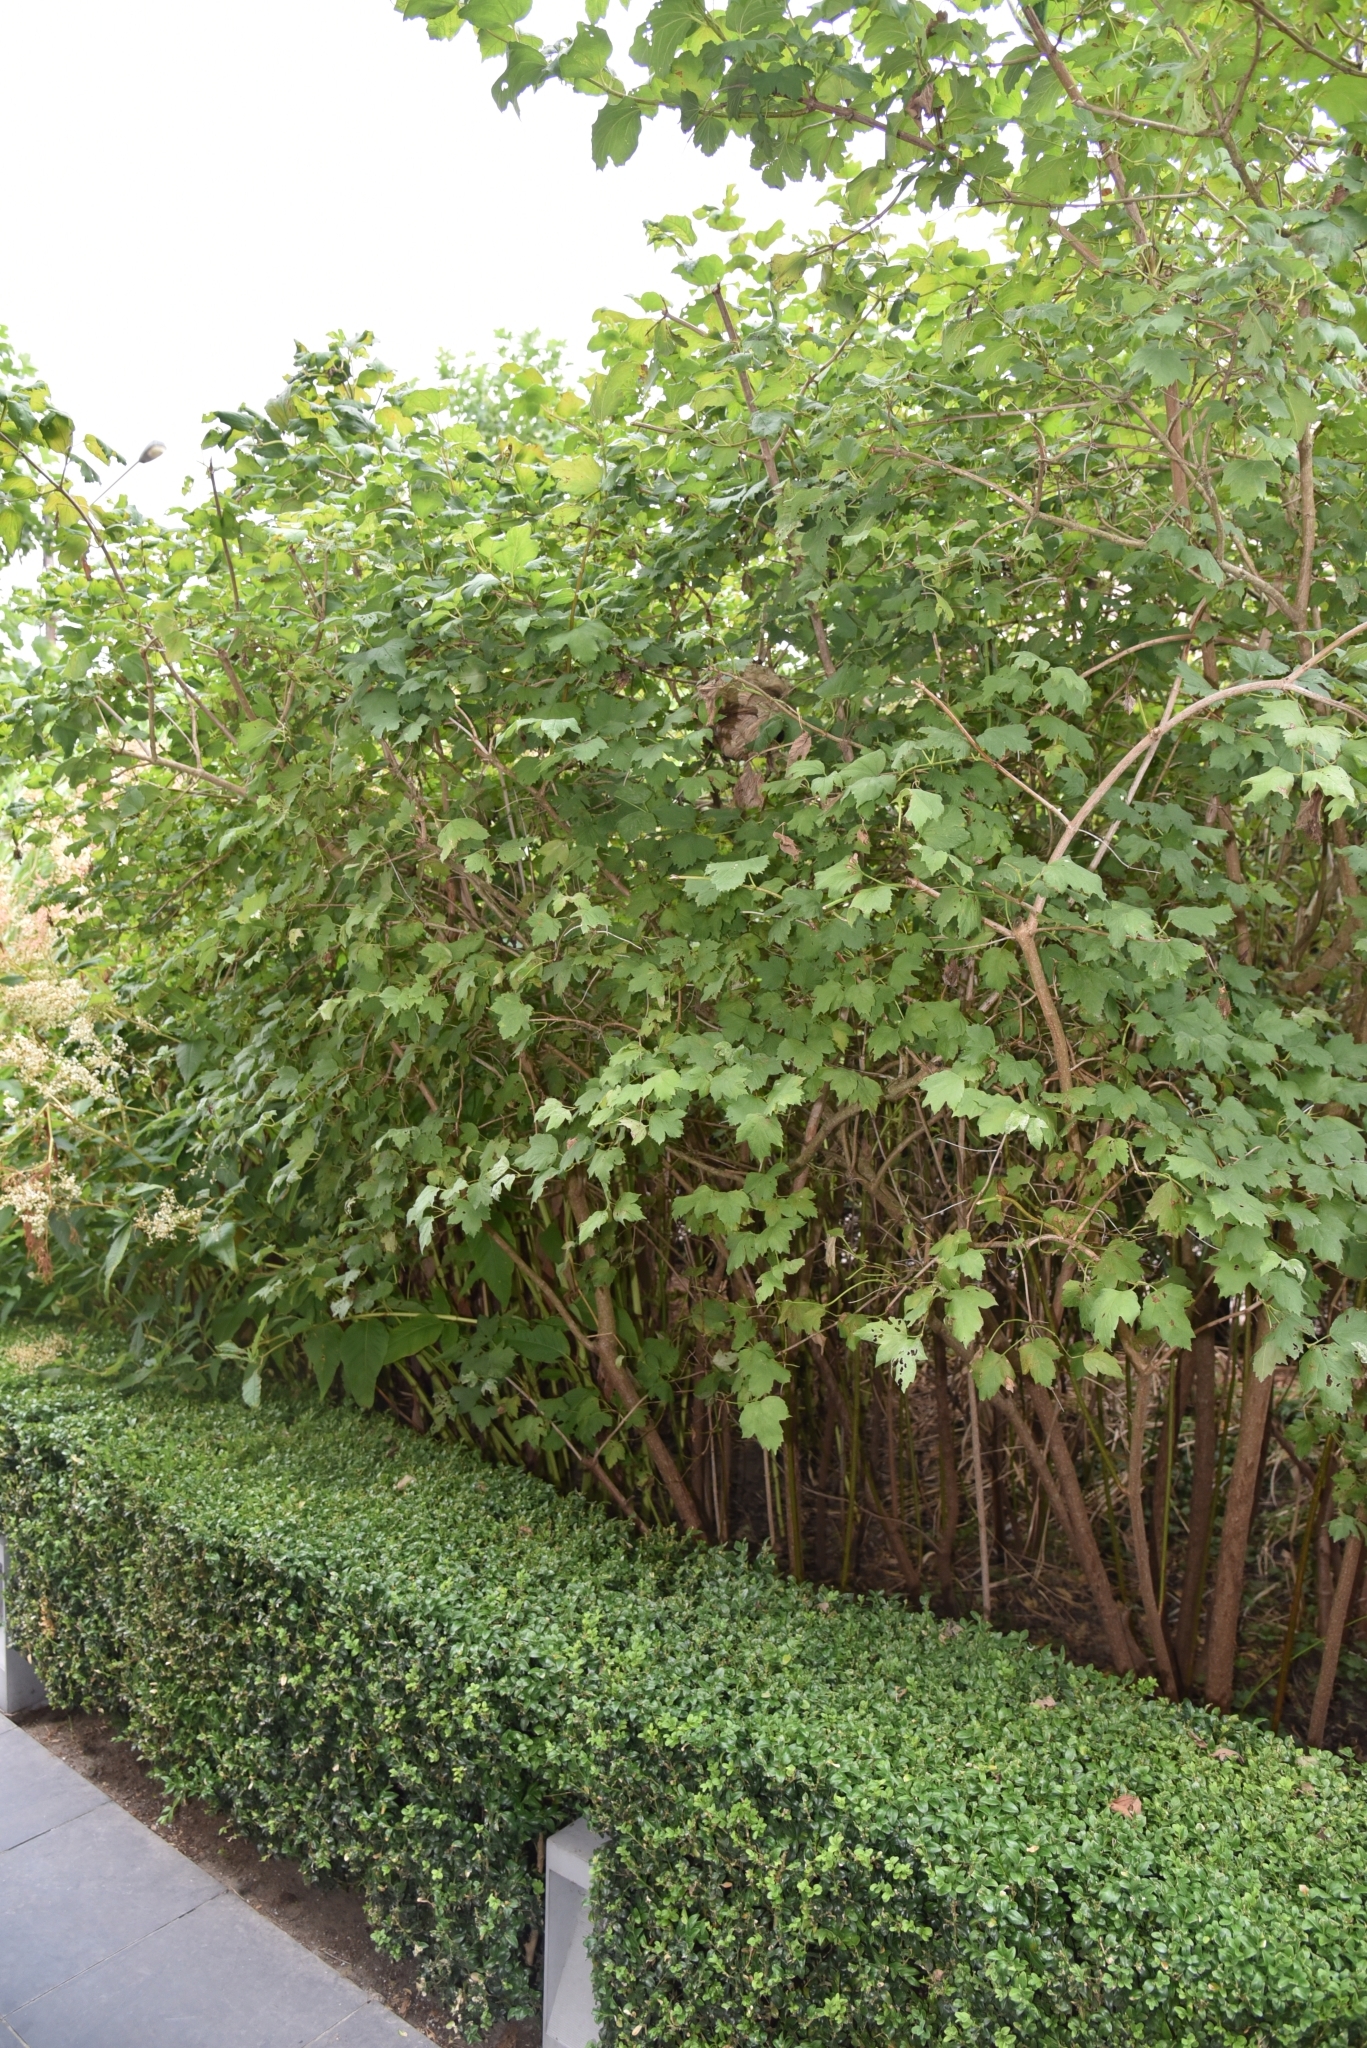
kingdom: Animalia
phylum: Arthropoda
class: Insecta
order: Hymenoptera
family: Vespidae
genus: Vespa
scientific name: Vespa velutina
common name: Asian hornet
